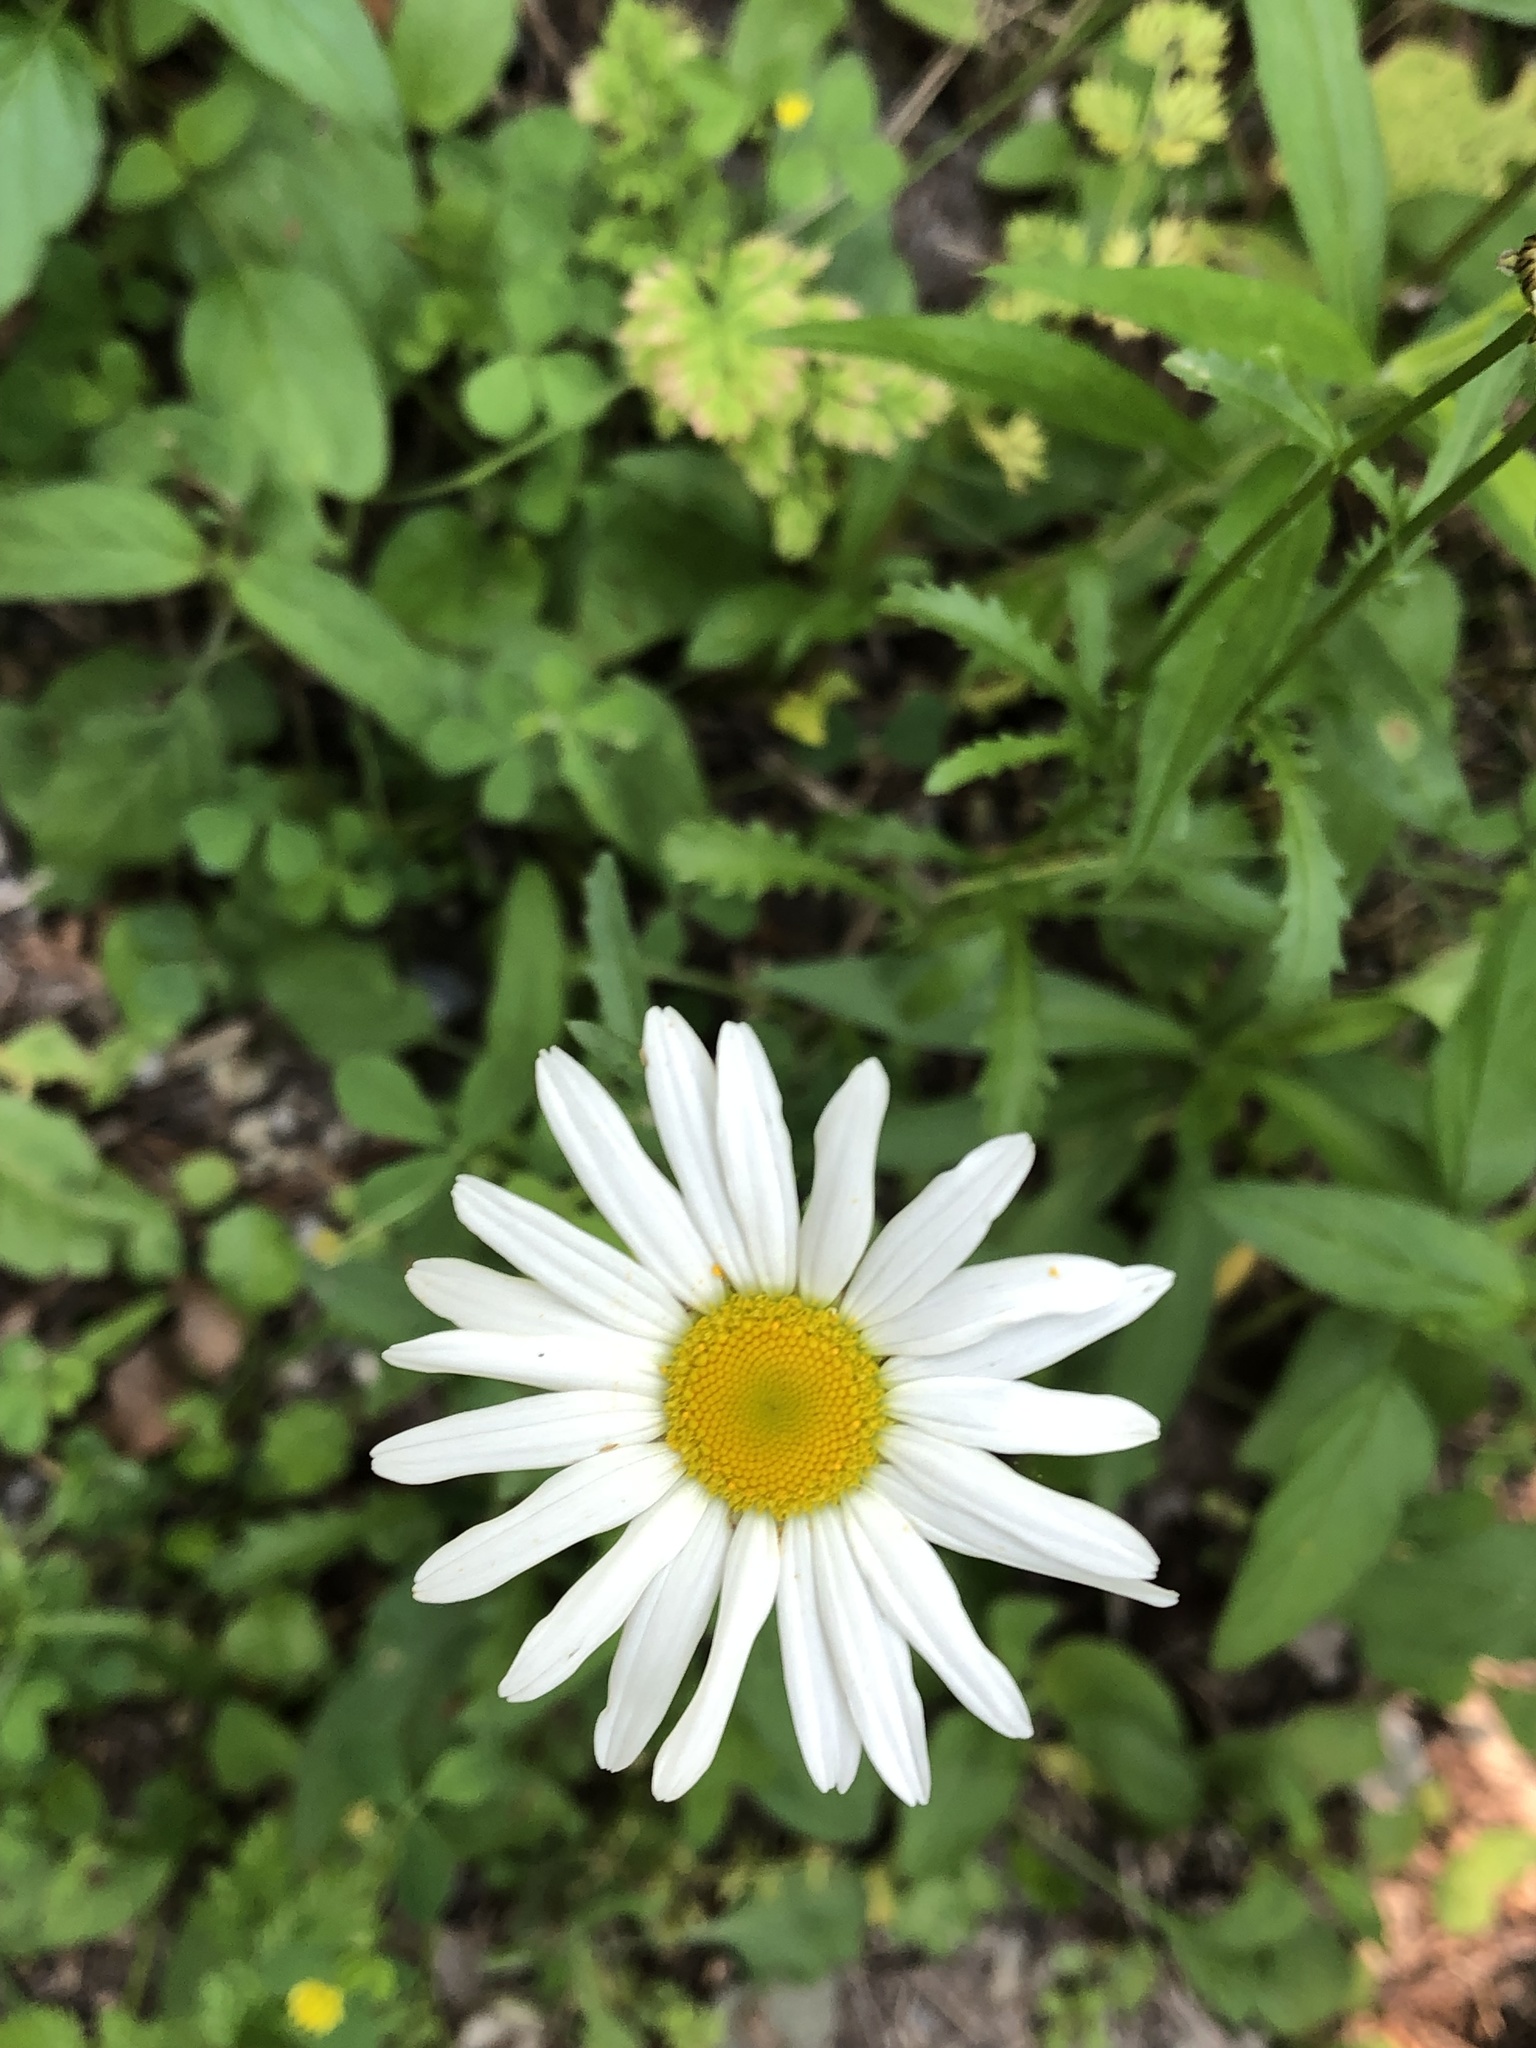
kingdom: Plantae
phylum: Tracheophyta
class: Magnoliopsida
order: Asterales
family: Asteraceae
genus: Leucanthemum
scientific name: Leucanthemum vulgare
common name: Oxeye daisy
